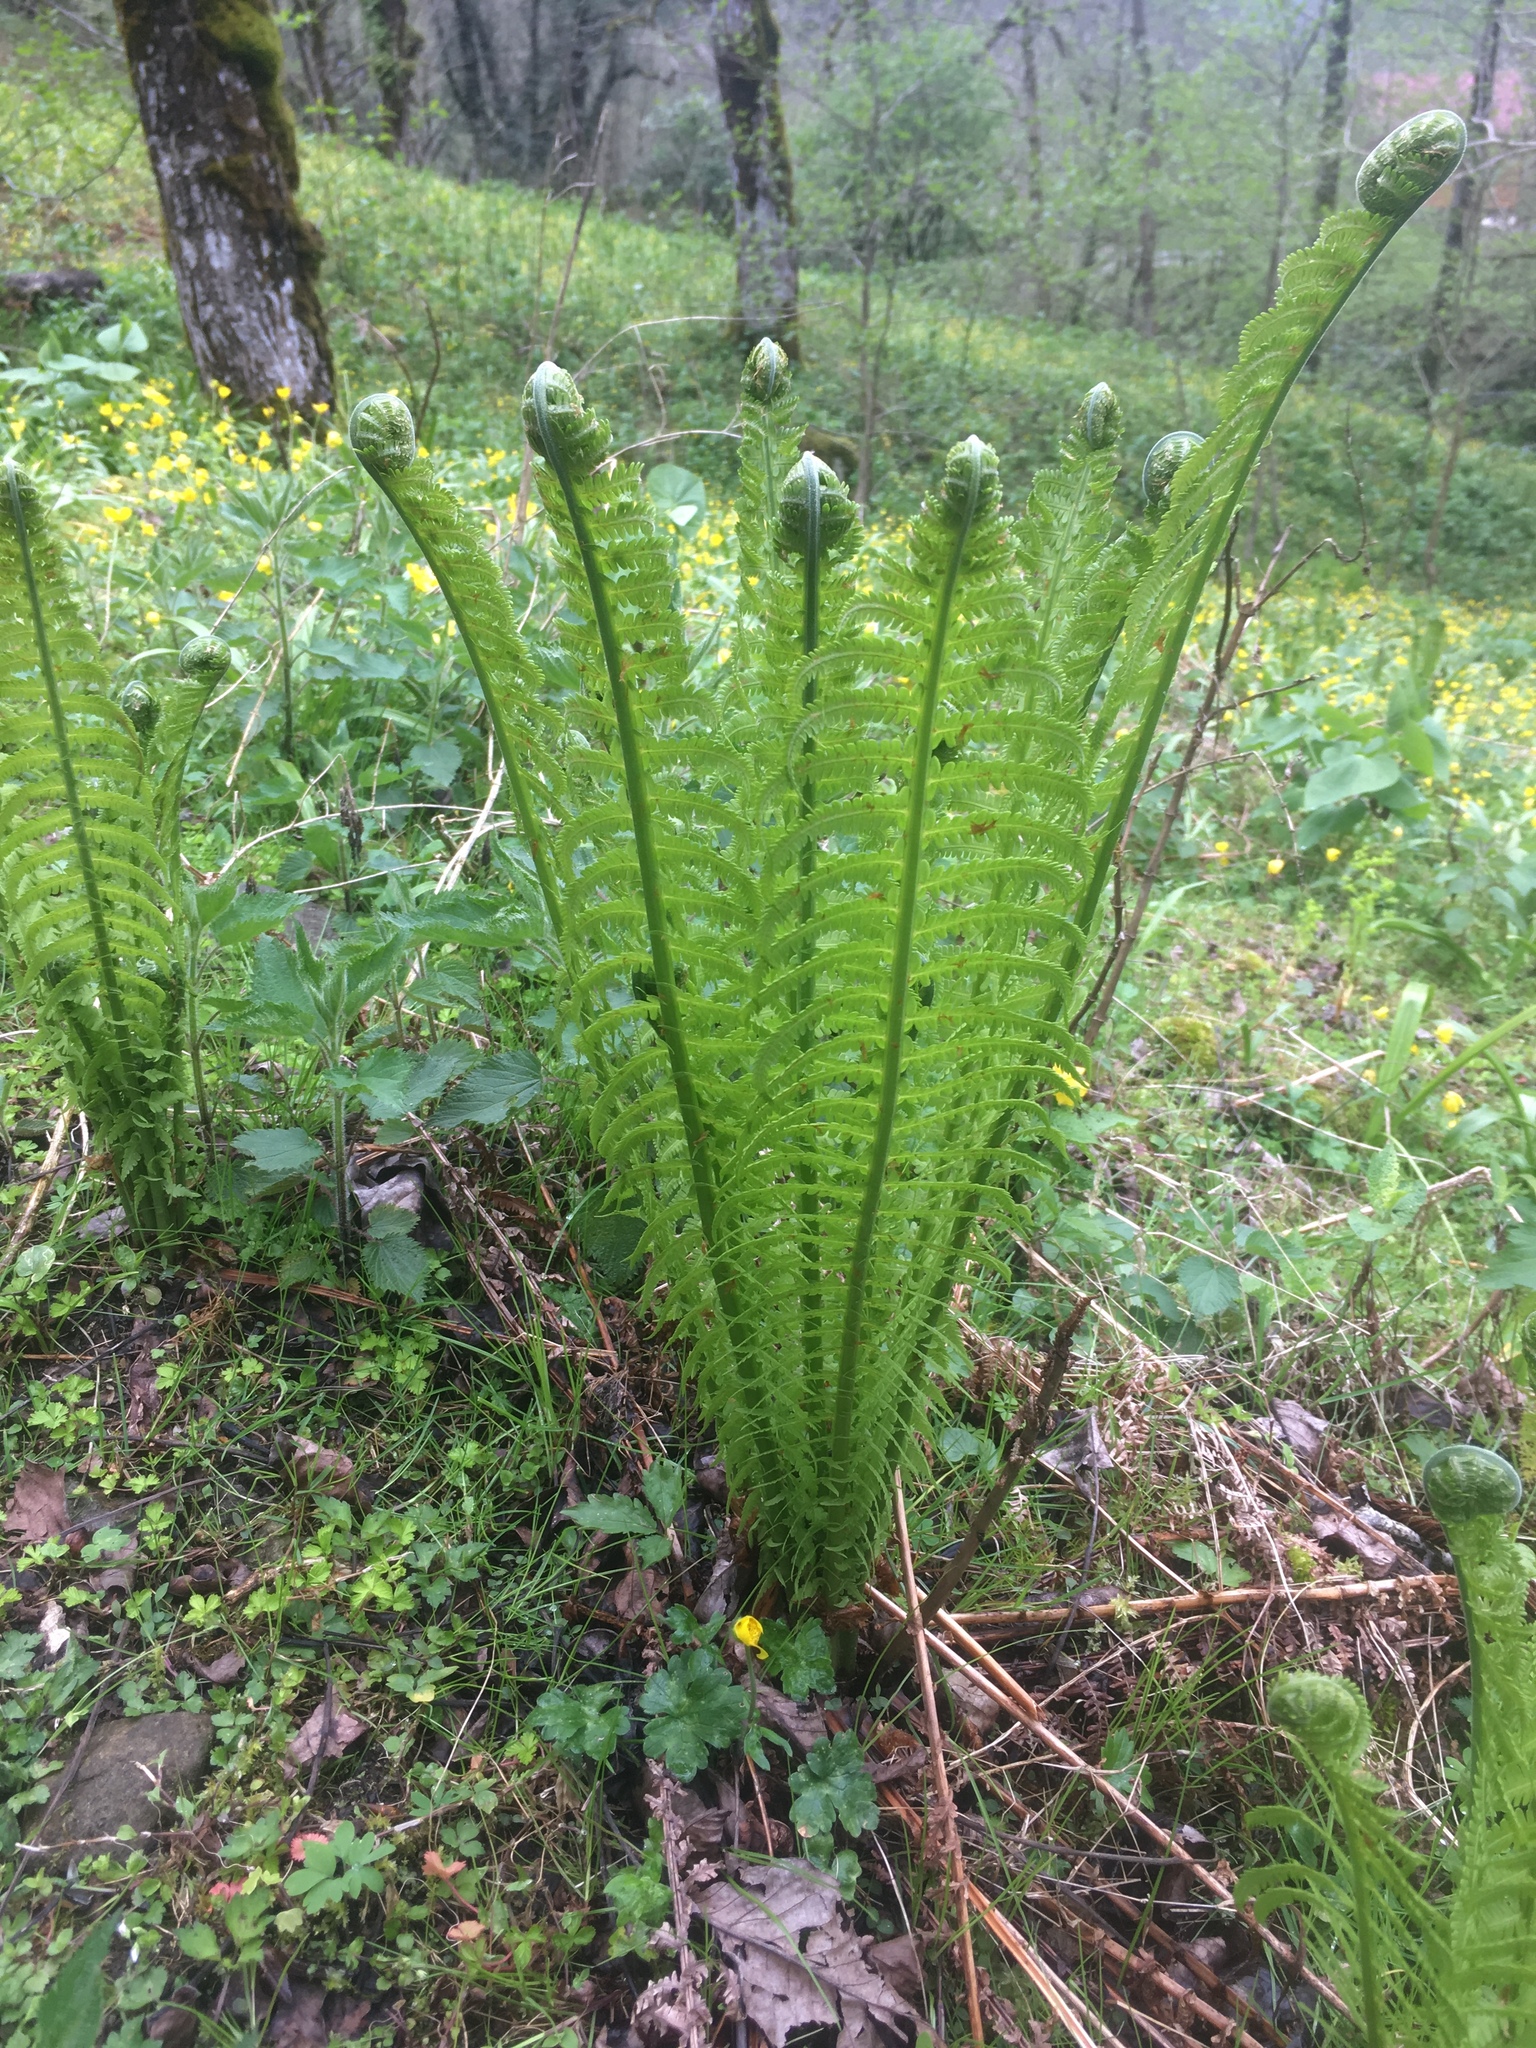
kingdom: Plantae
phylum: Tracheophyta
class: Polypodiopsida
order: Polypodiales
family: Onocleaceae
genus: Matteuccia
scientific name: Matteuccia struthiopteris
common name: Ostrich fern
